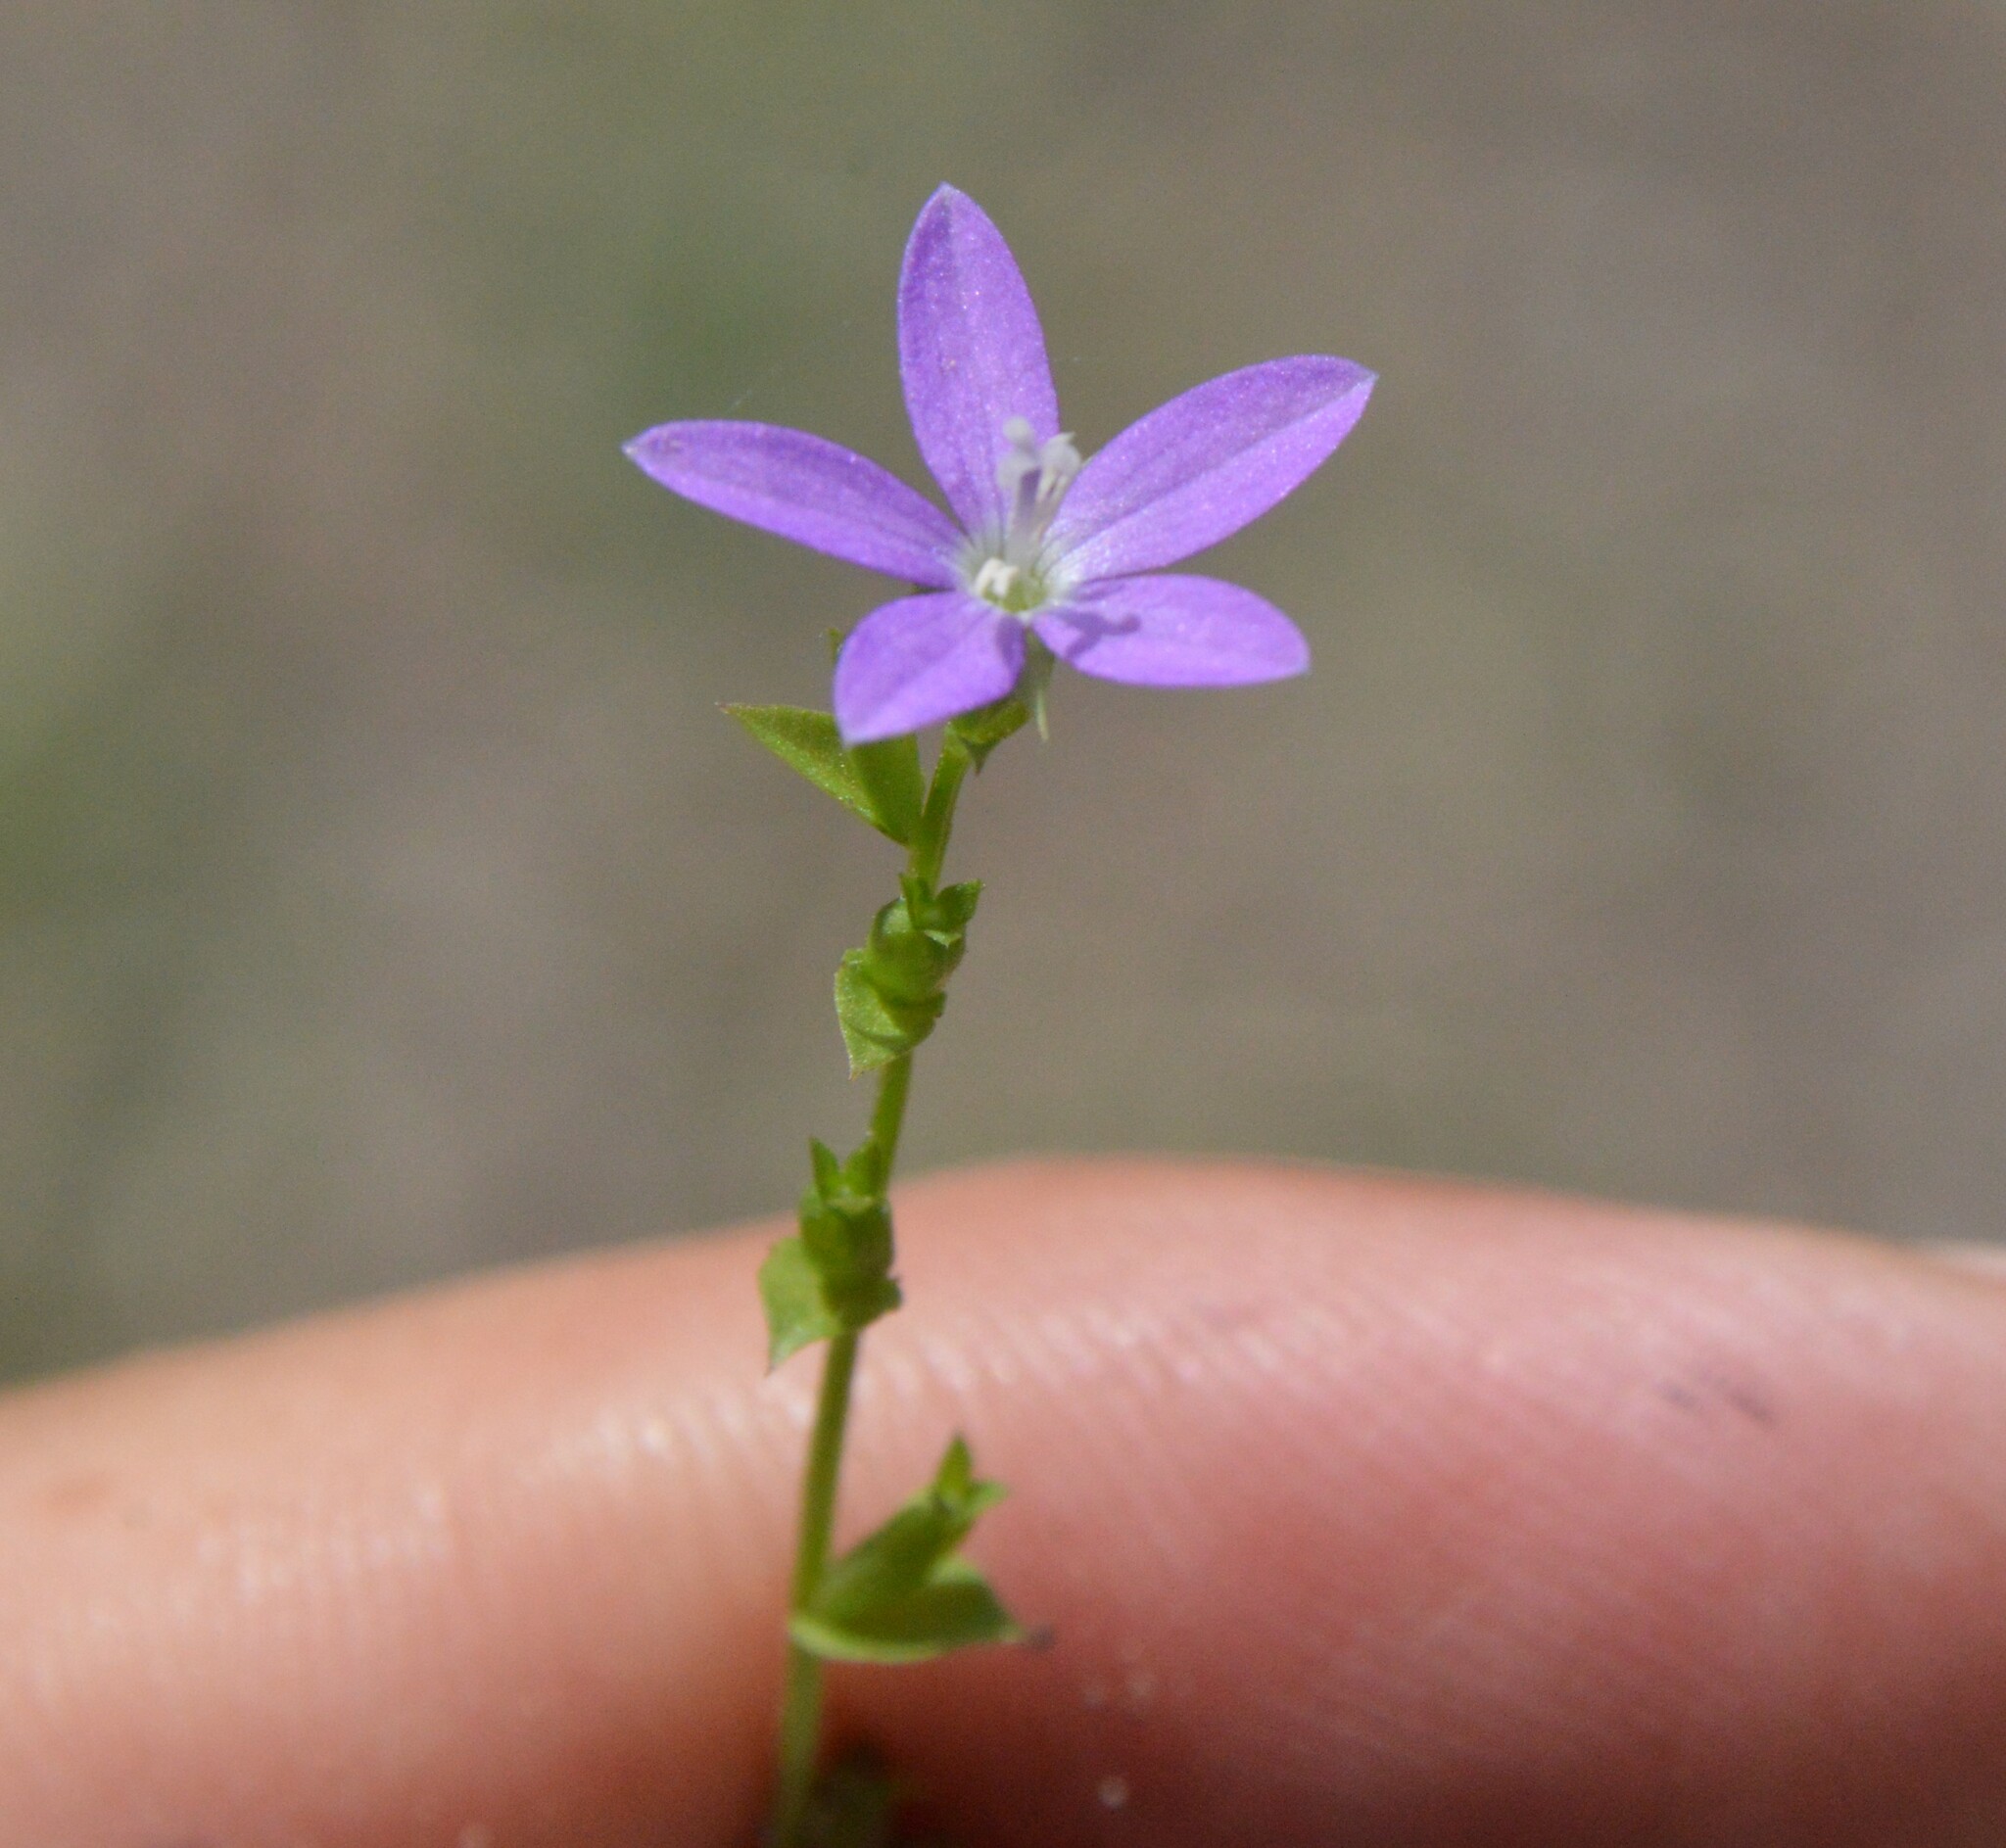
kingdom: Plantae
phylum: Tracheophyta
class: Magnoliopsida
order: Asterales
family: Campanulaceae
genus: Triodanis
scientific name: Triodanis biflora
